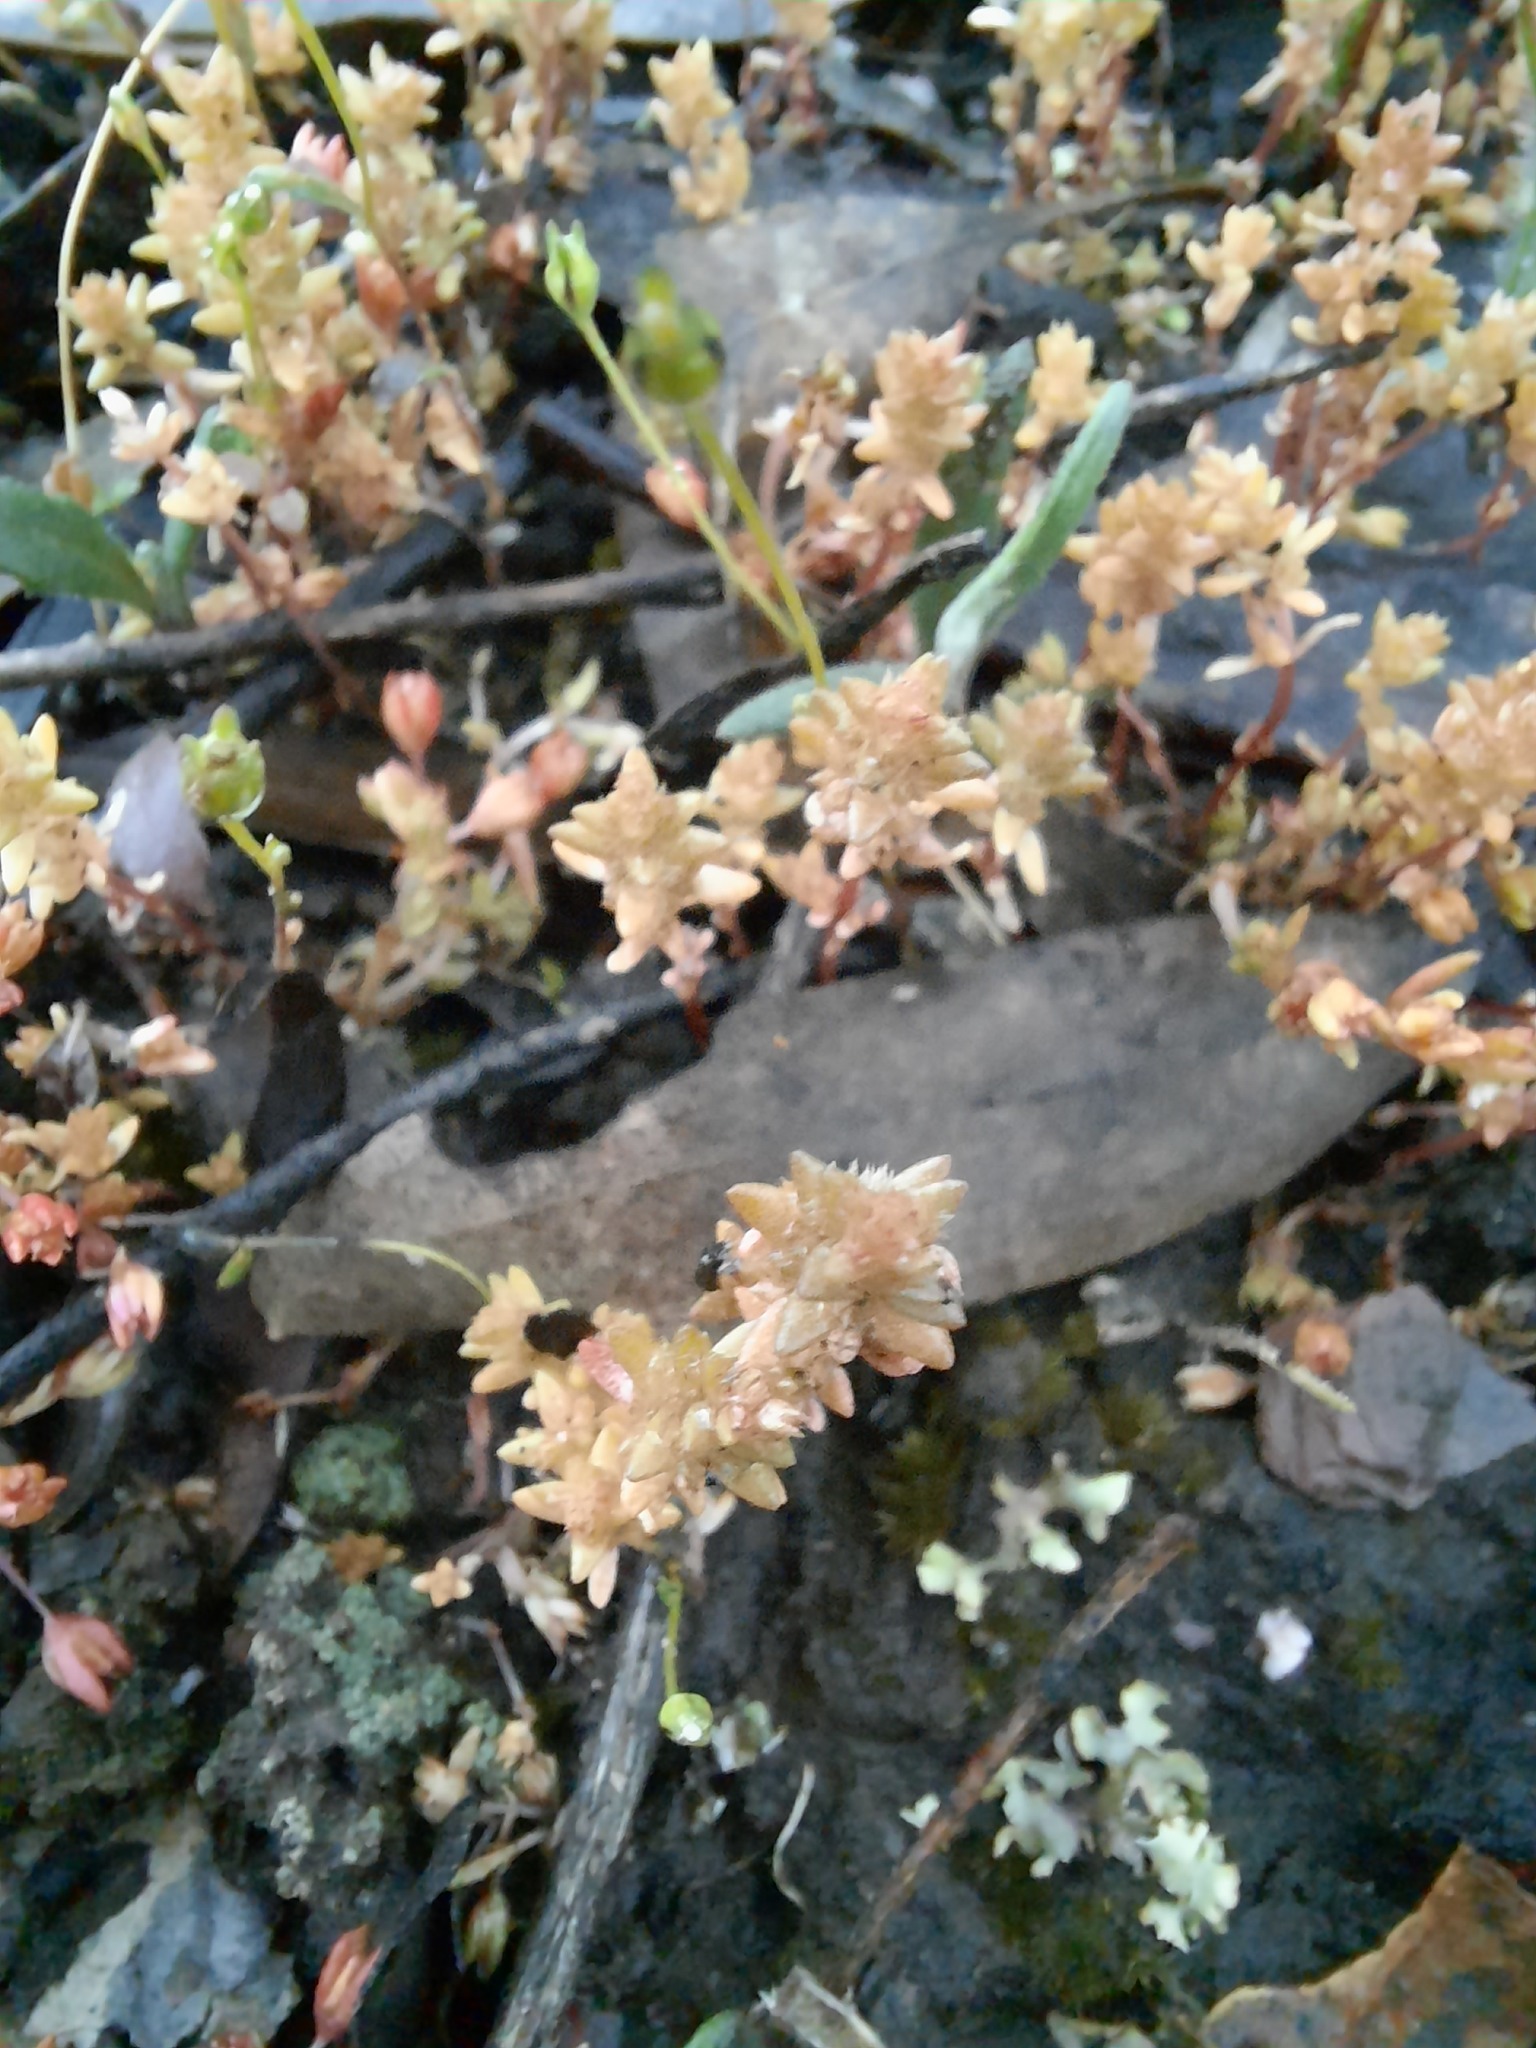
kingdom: Plantae
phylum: Tracheophyta
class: Magnoliopsida
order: Saxifragales
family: Crassulaceae
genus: Crassula
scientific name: Crassula sieberiana
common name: Siberian pygmyweed
